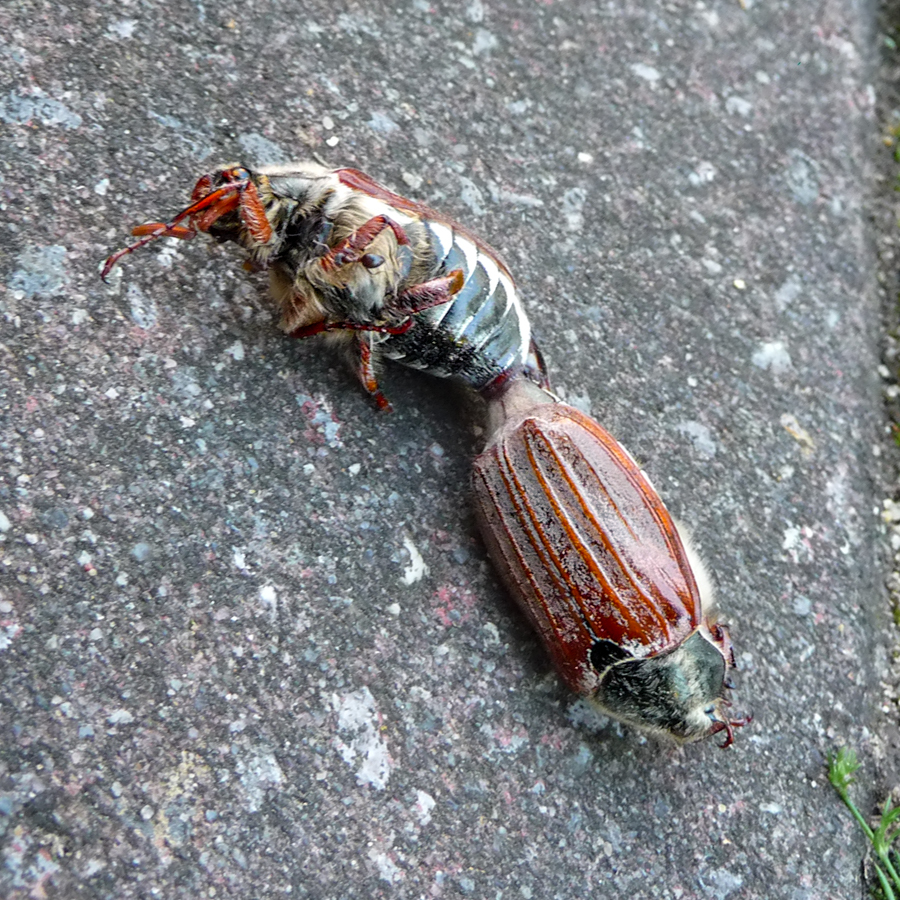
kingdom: Animalia
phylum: Arthropoda
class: Insecta
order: Coleoptera
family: Scarabaeidae
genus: Melolontha
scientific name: Melolontha melolontha
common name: Cockchafer maybeetle
